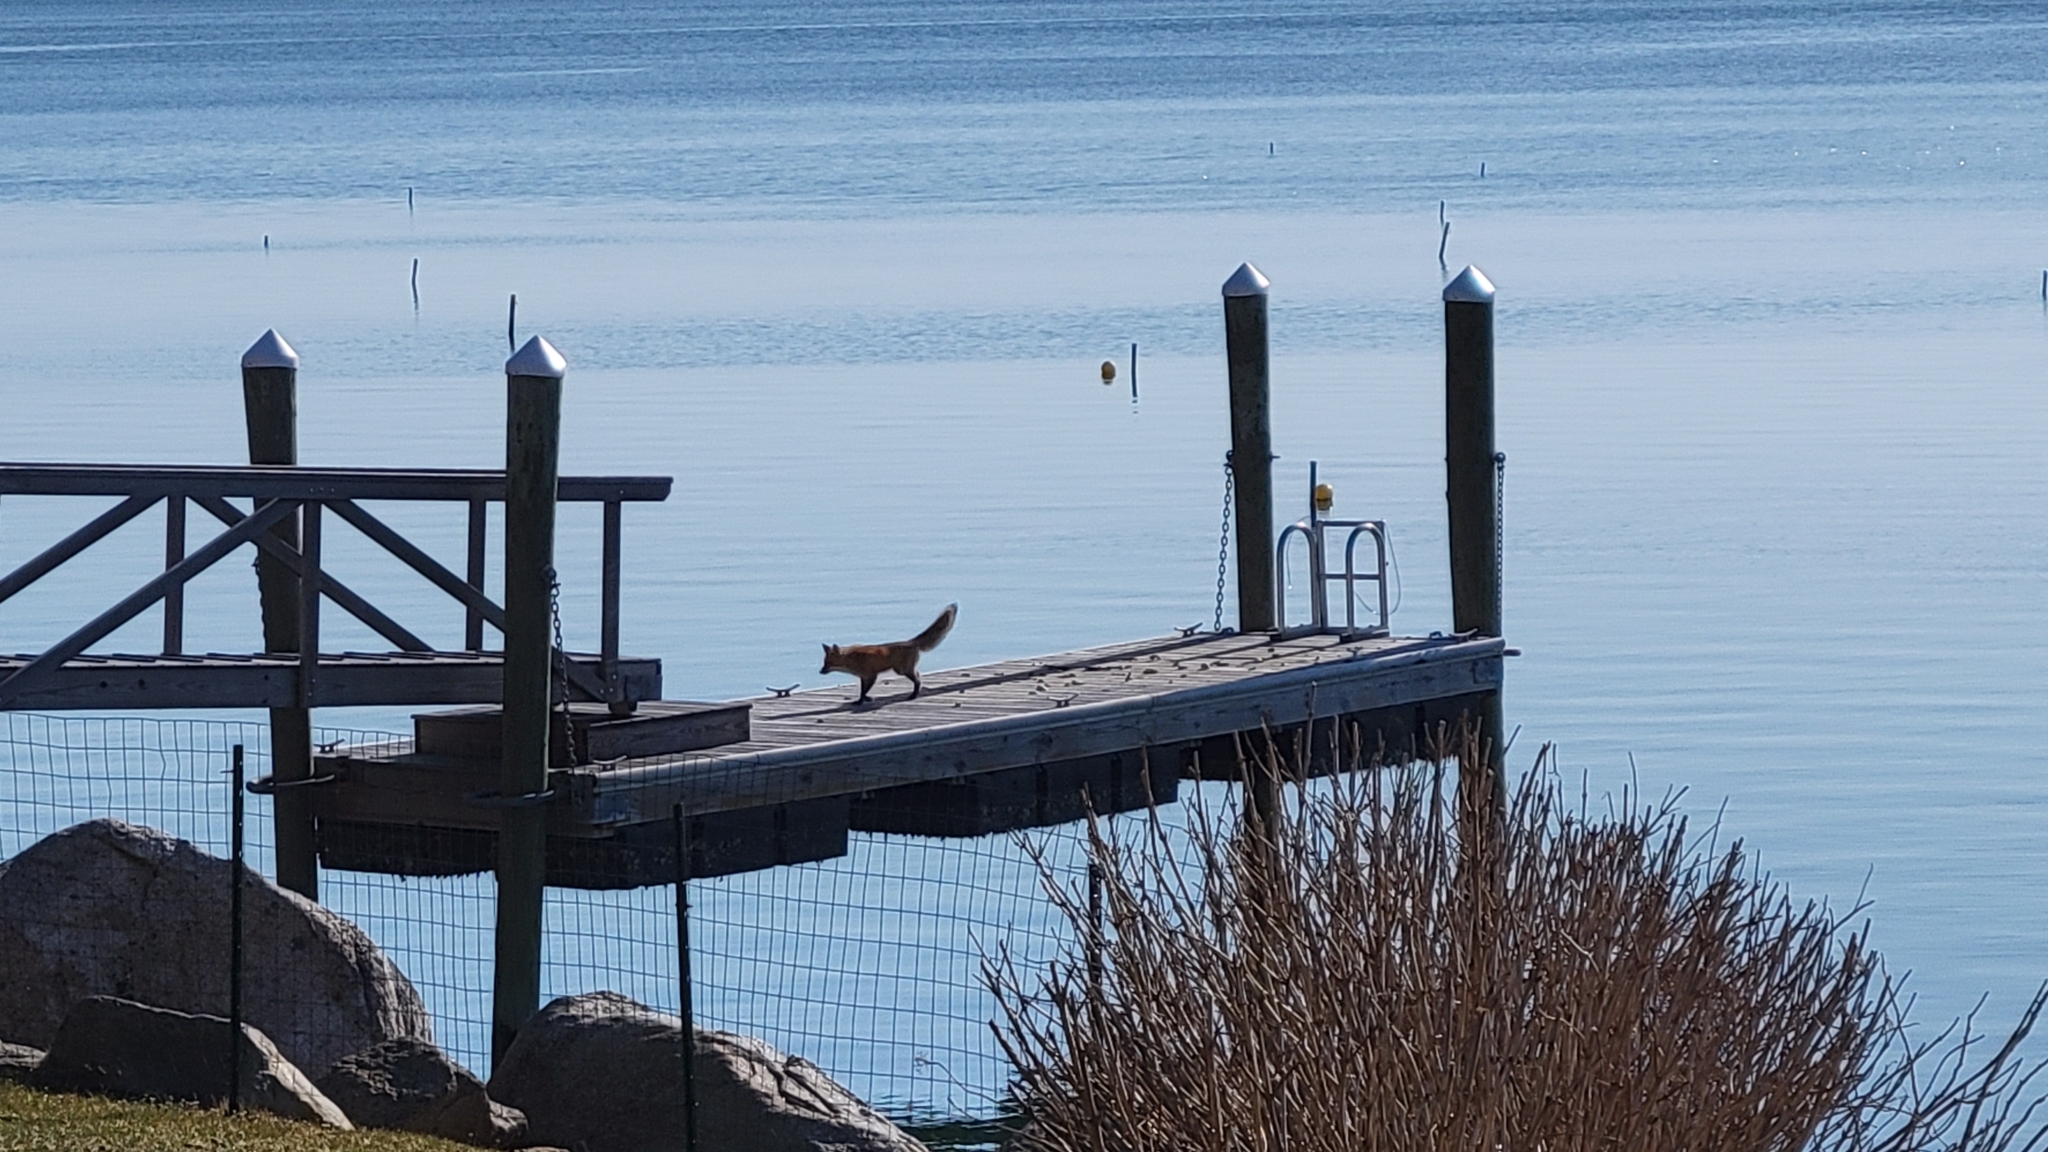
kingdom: Animalia
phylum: Chordata
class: Mammalia
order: Carnivora
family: Canidae
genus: Vulpes
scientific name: Vulpes vulpes
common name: Red fox
